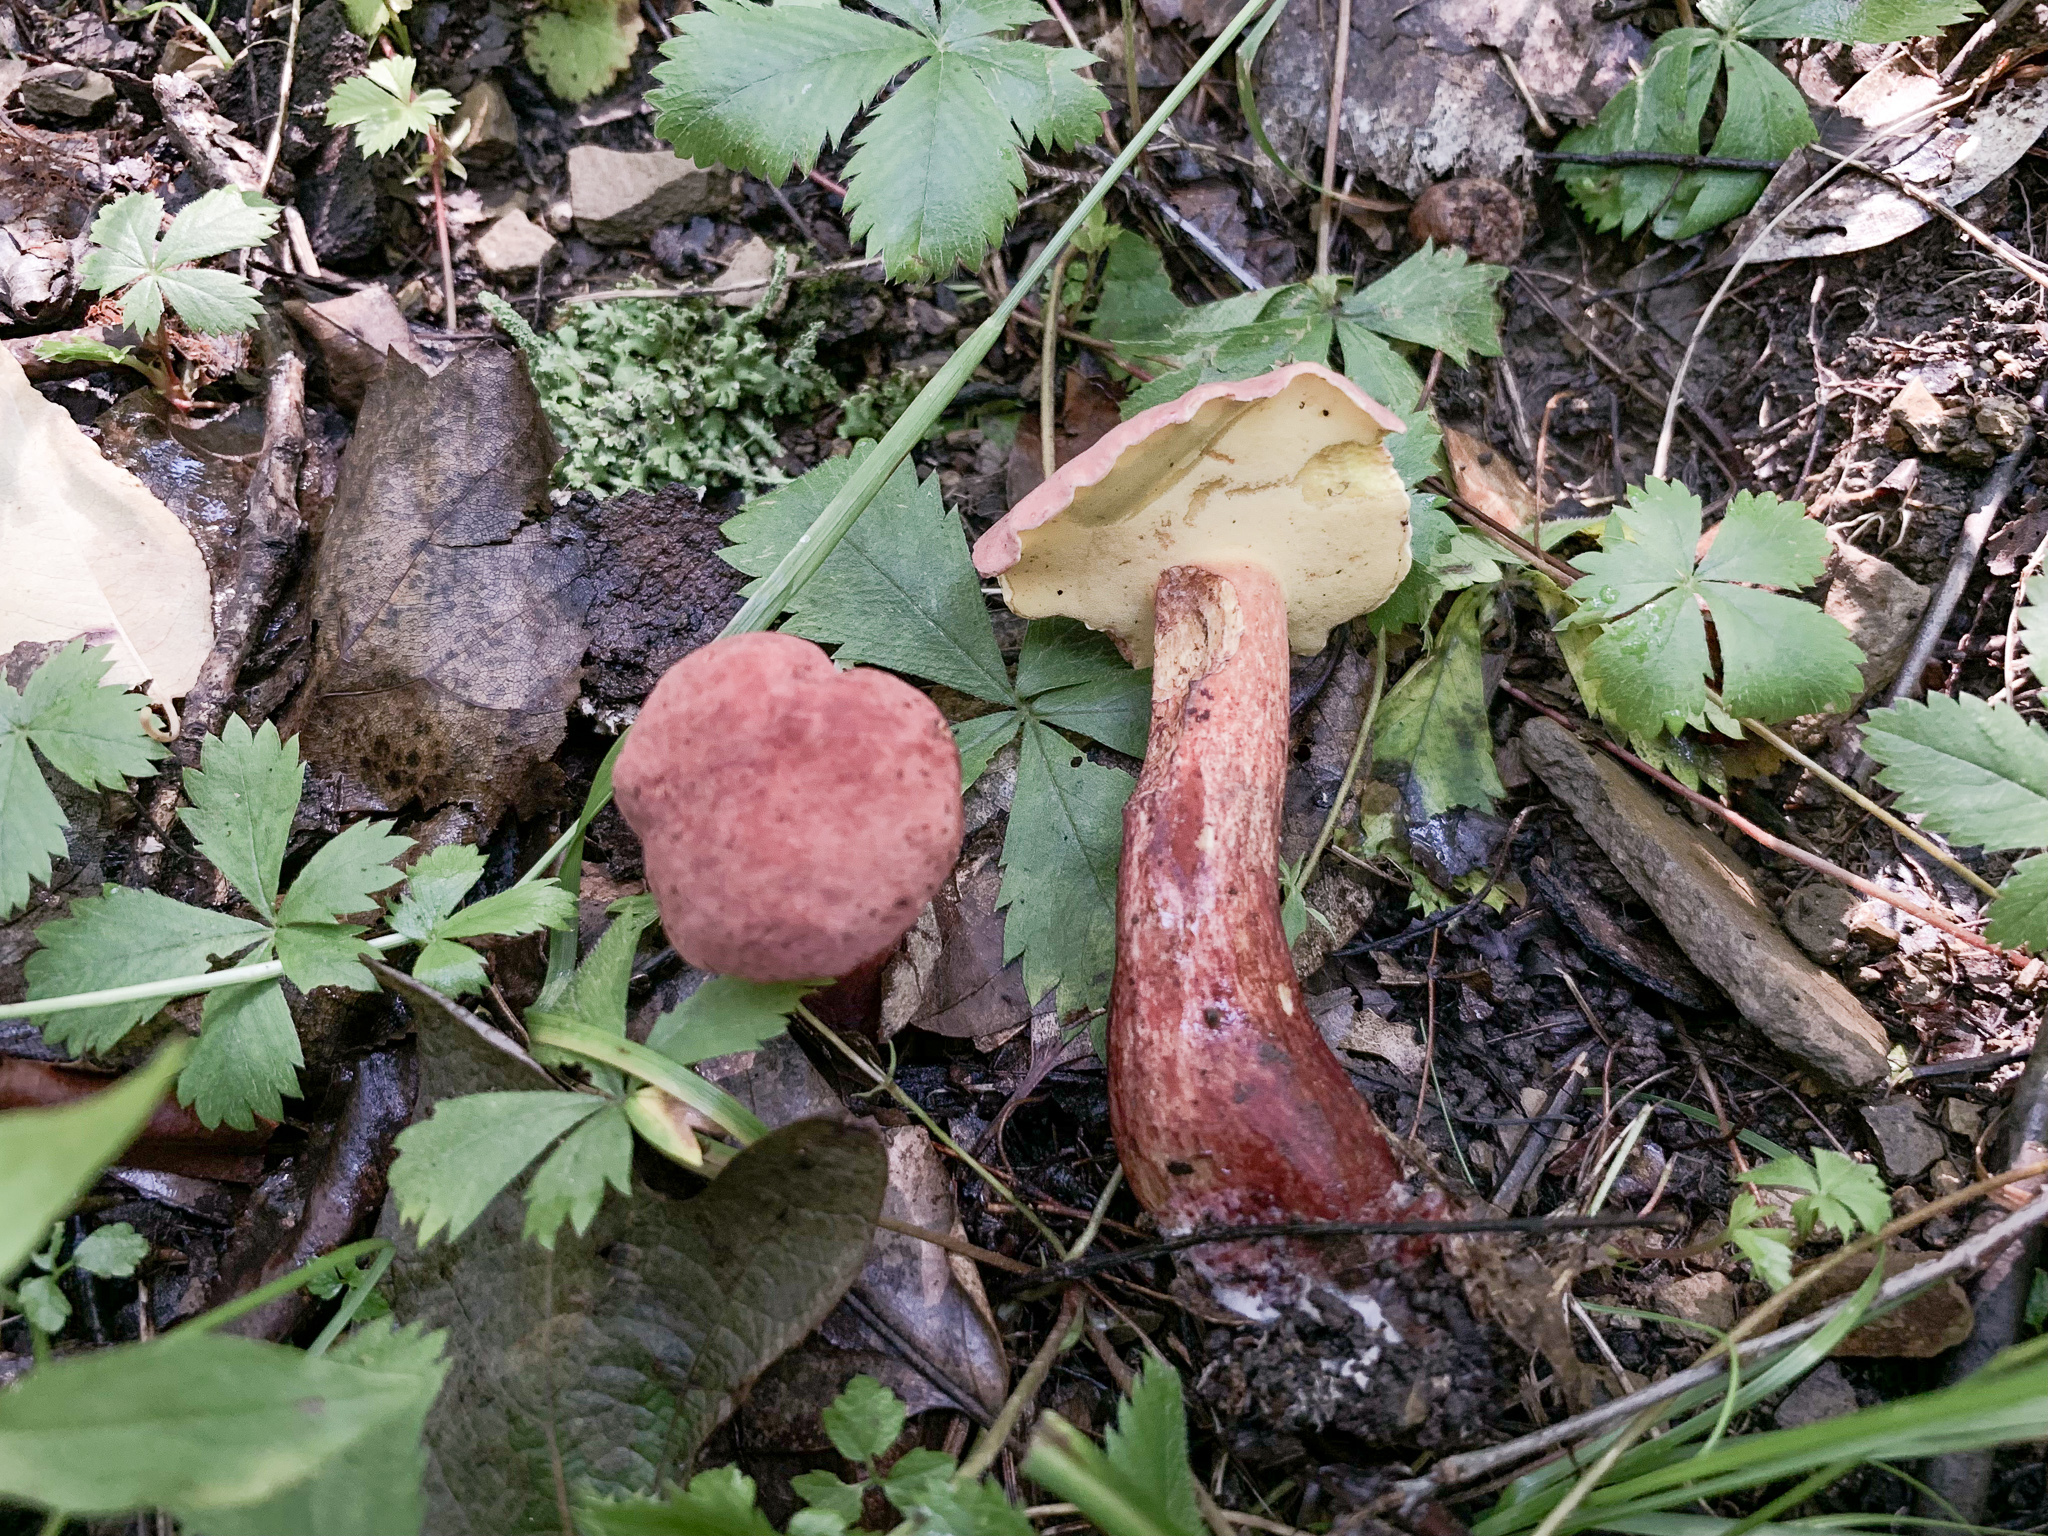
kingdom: Fungi
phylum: Basidiomycota
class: Agaricomycetes
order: Boletales
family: Boletaceae
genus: Baorangia
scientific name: Baorangia bicolor
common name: Two-colored bolete
